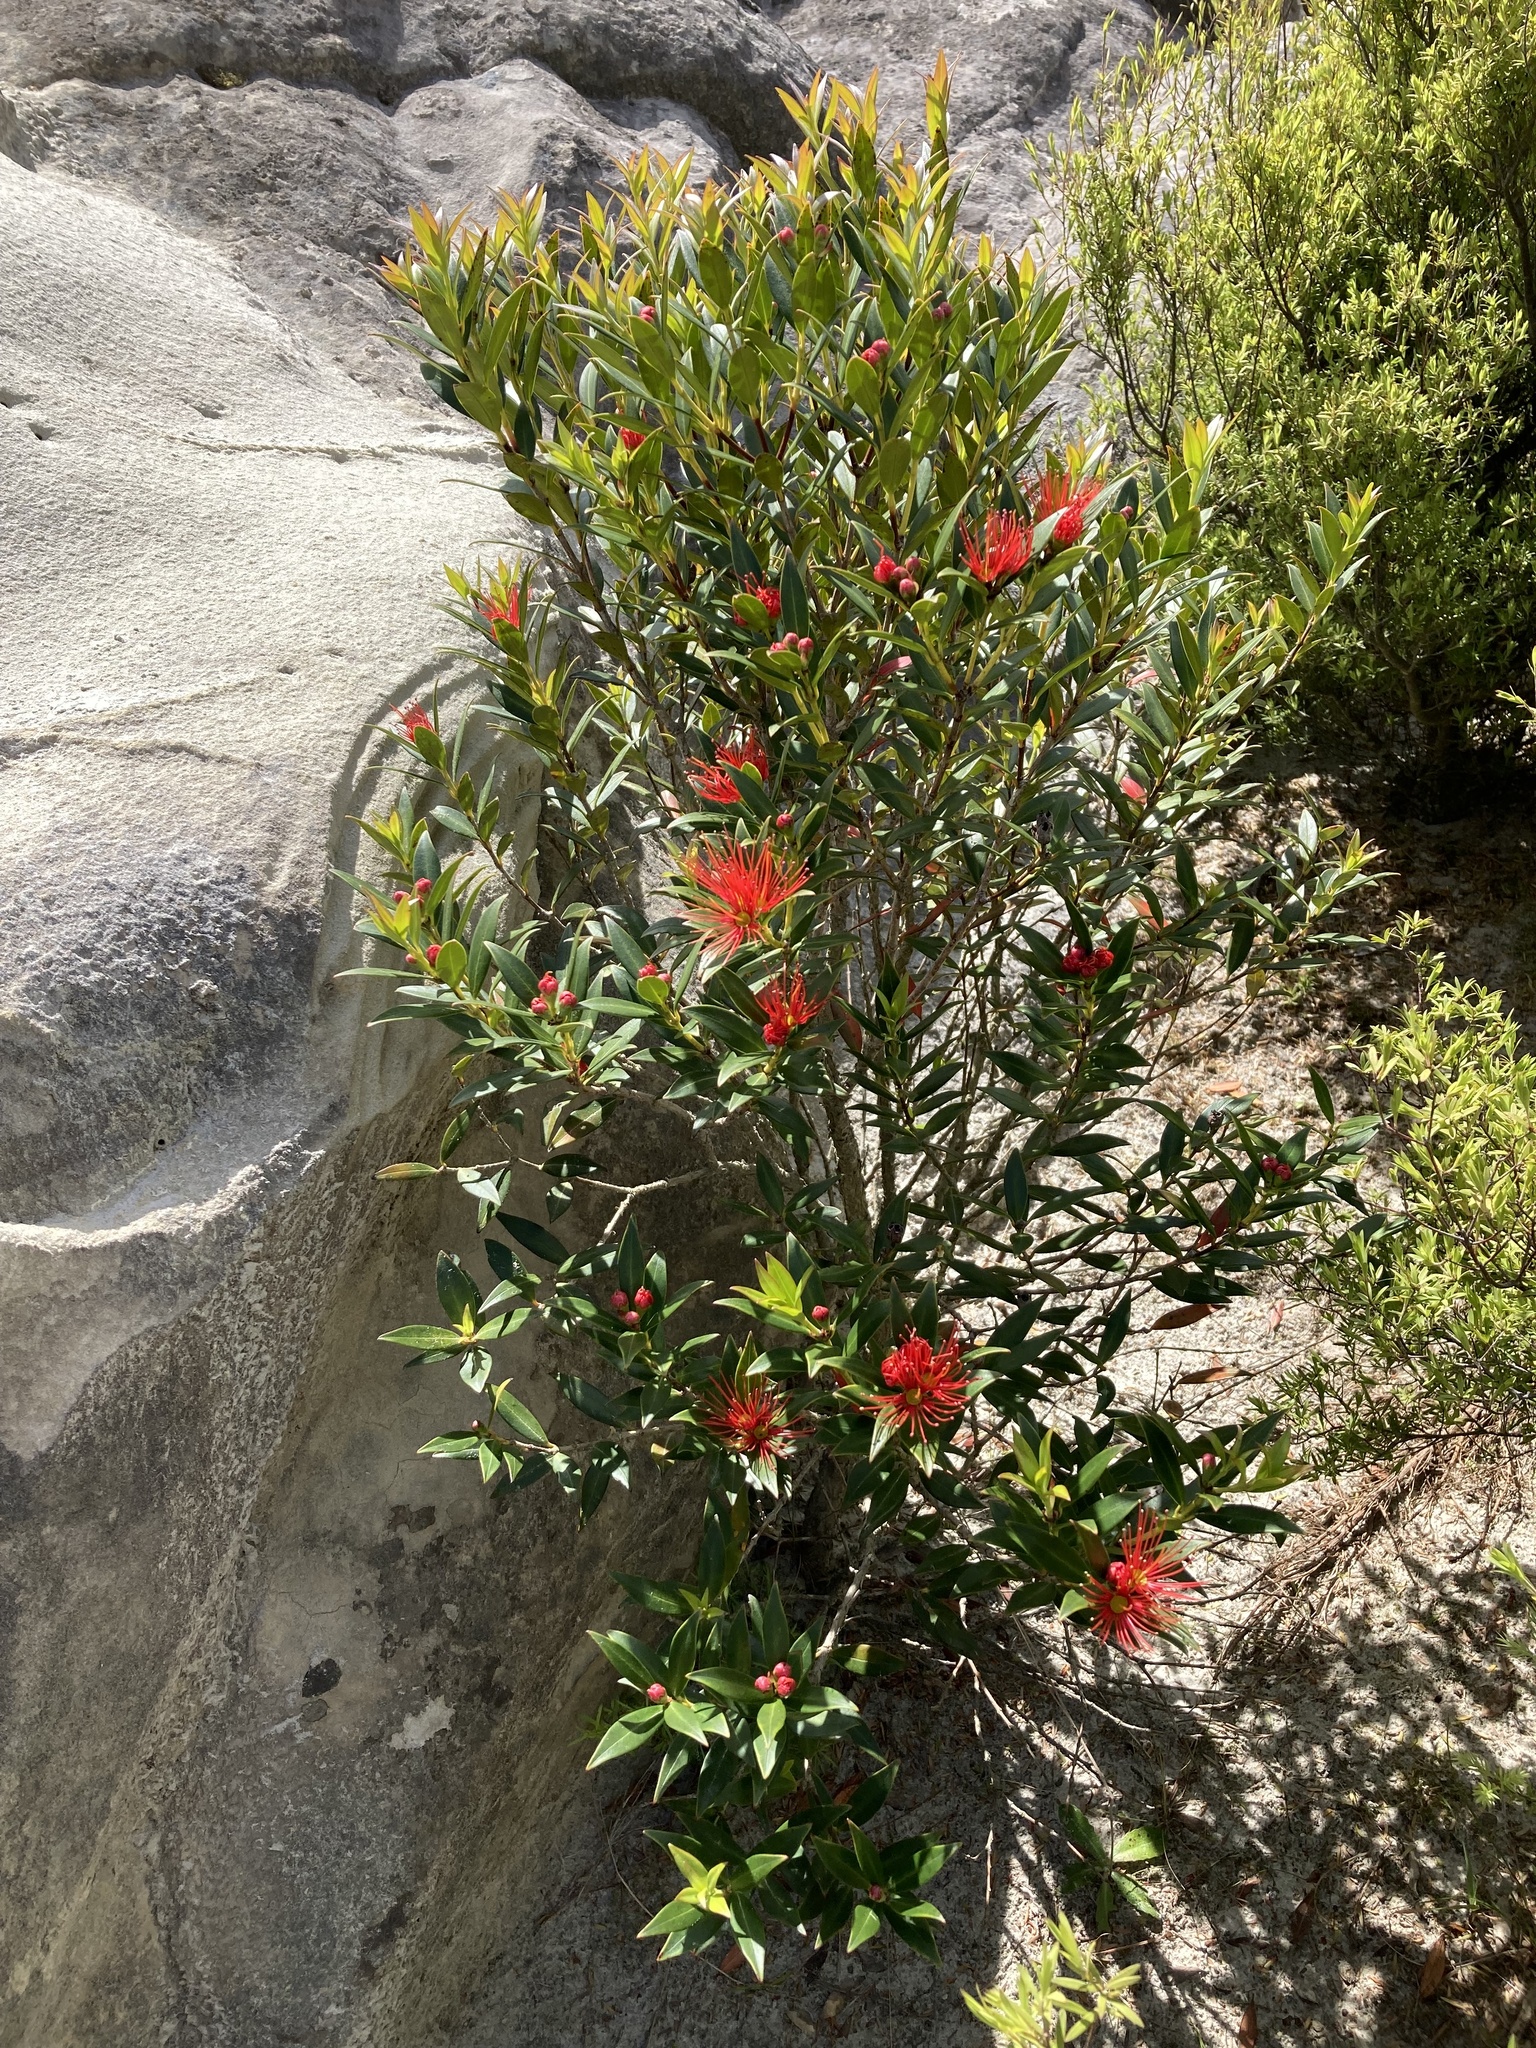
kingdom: Plantae
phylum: Tracheophyta
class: Magnoliopsida
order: Myrtales
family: Myrtaceae
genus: Metrosideros
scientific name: Metrosideros umbellata
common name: Southern rata
